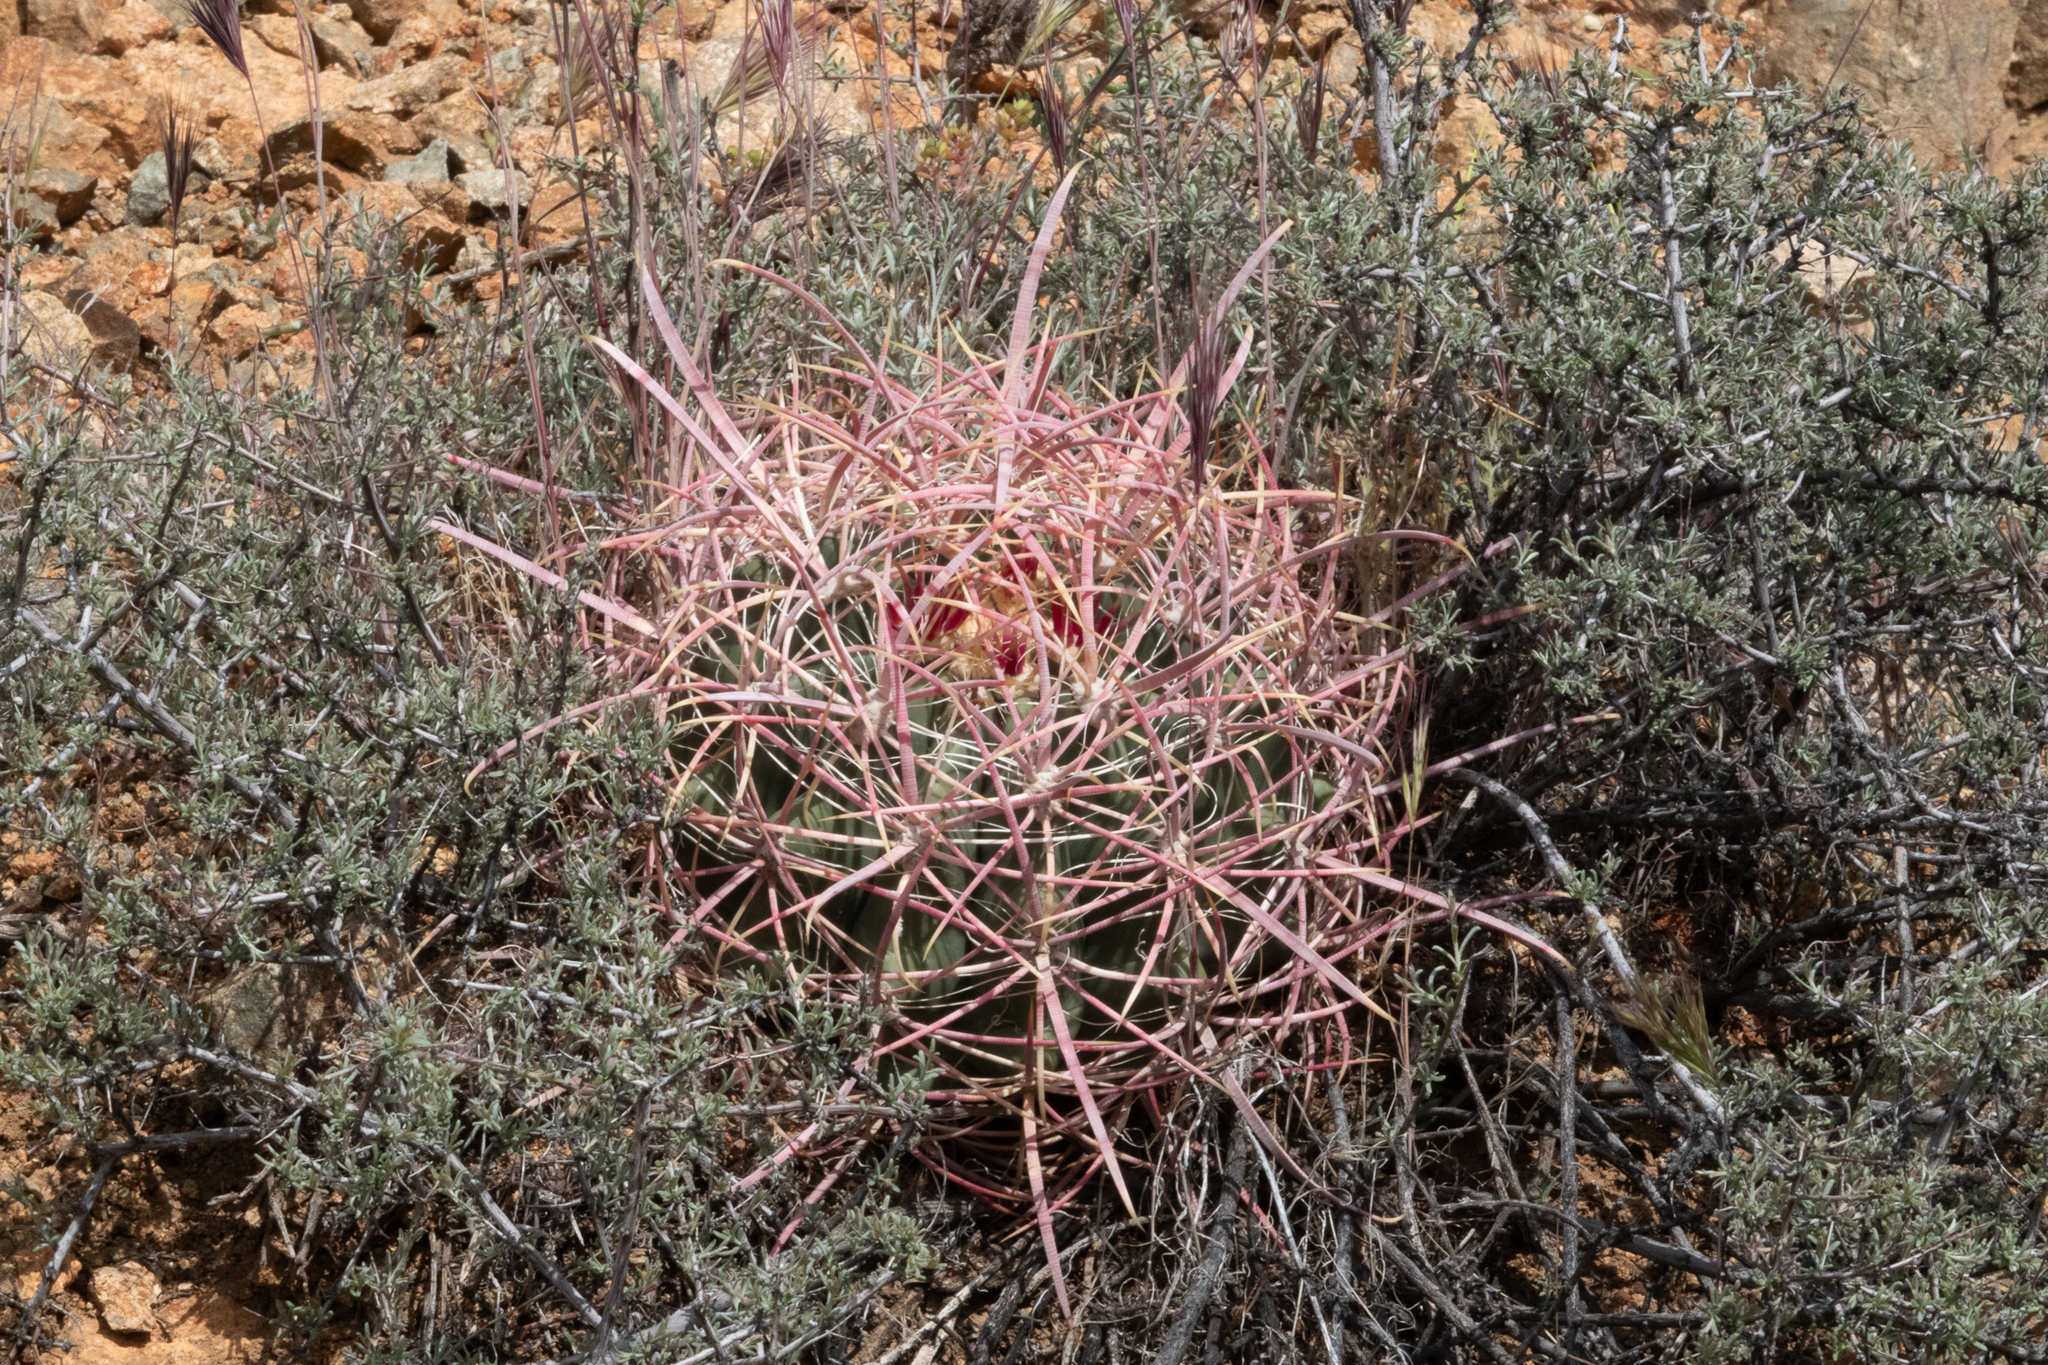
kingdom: Plantae
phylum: Tracheophyta
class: Magnoliopsida
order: Caryophyllales
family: Cactaceae
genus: Ferocactus
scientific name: Ferocactus cylindraceus
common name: California barrel cactus
